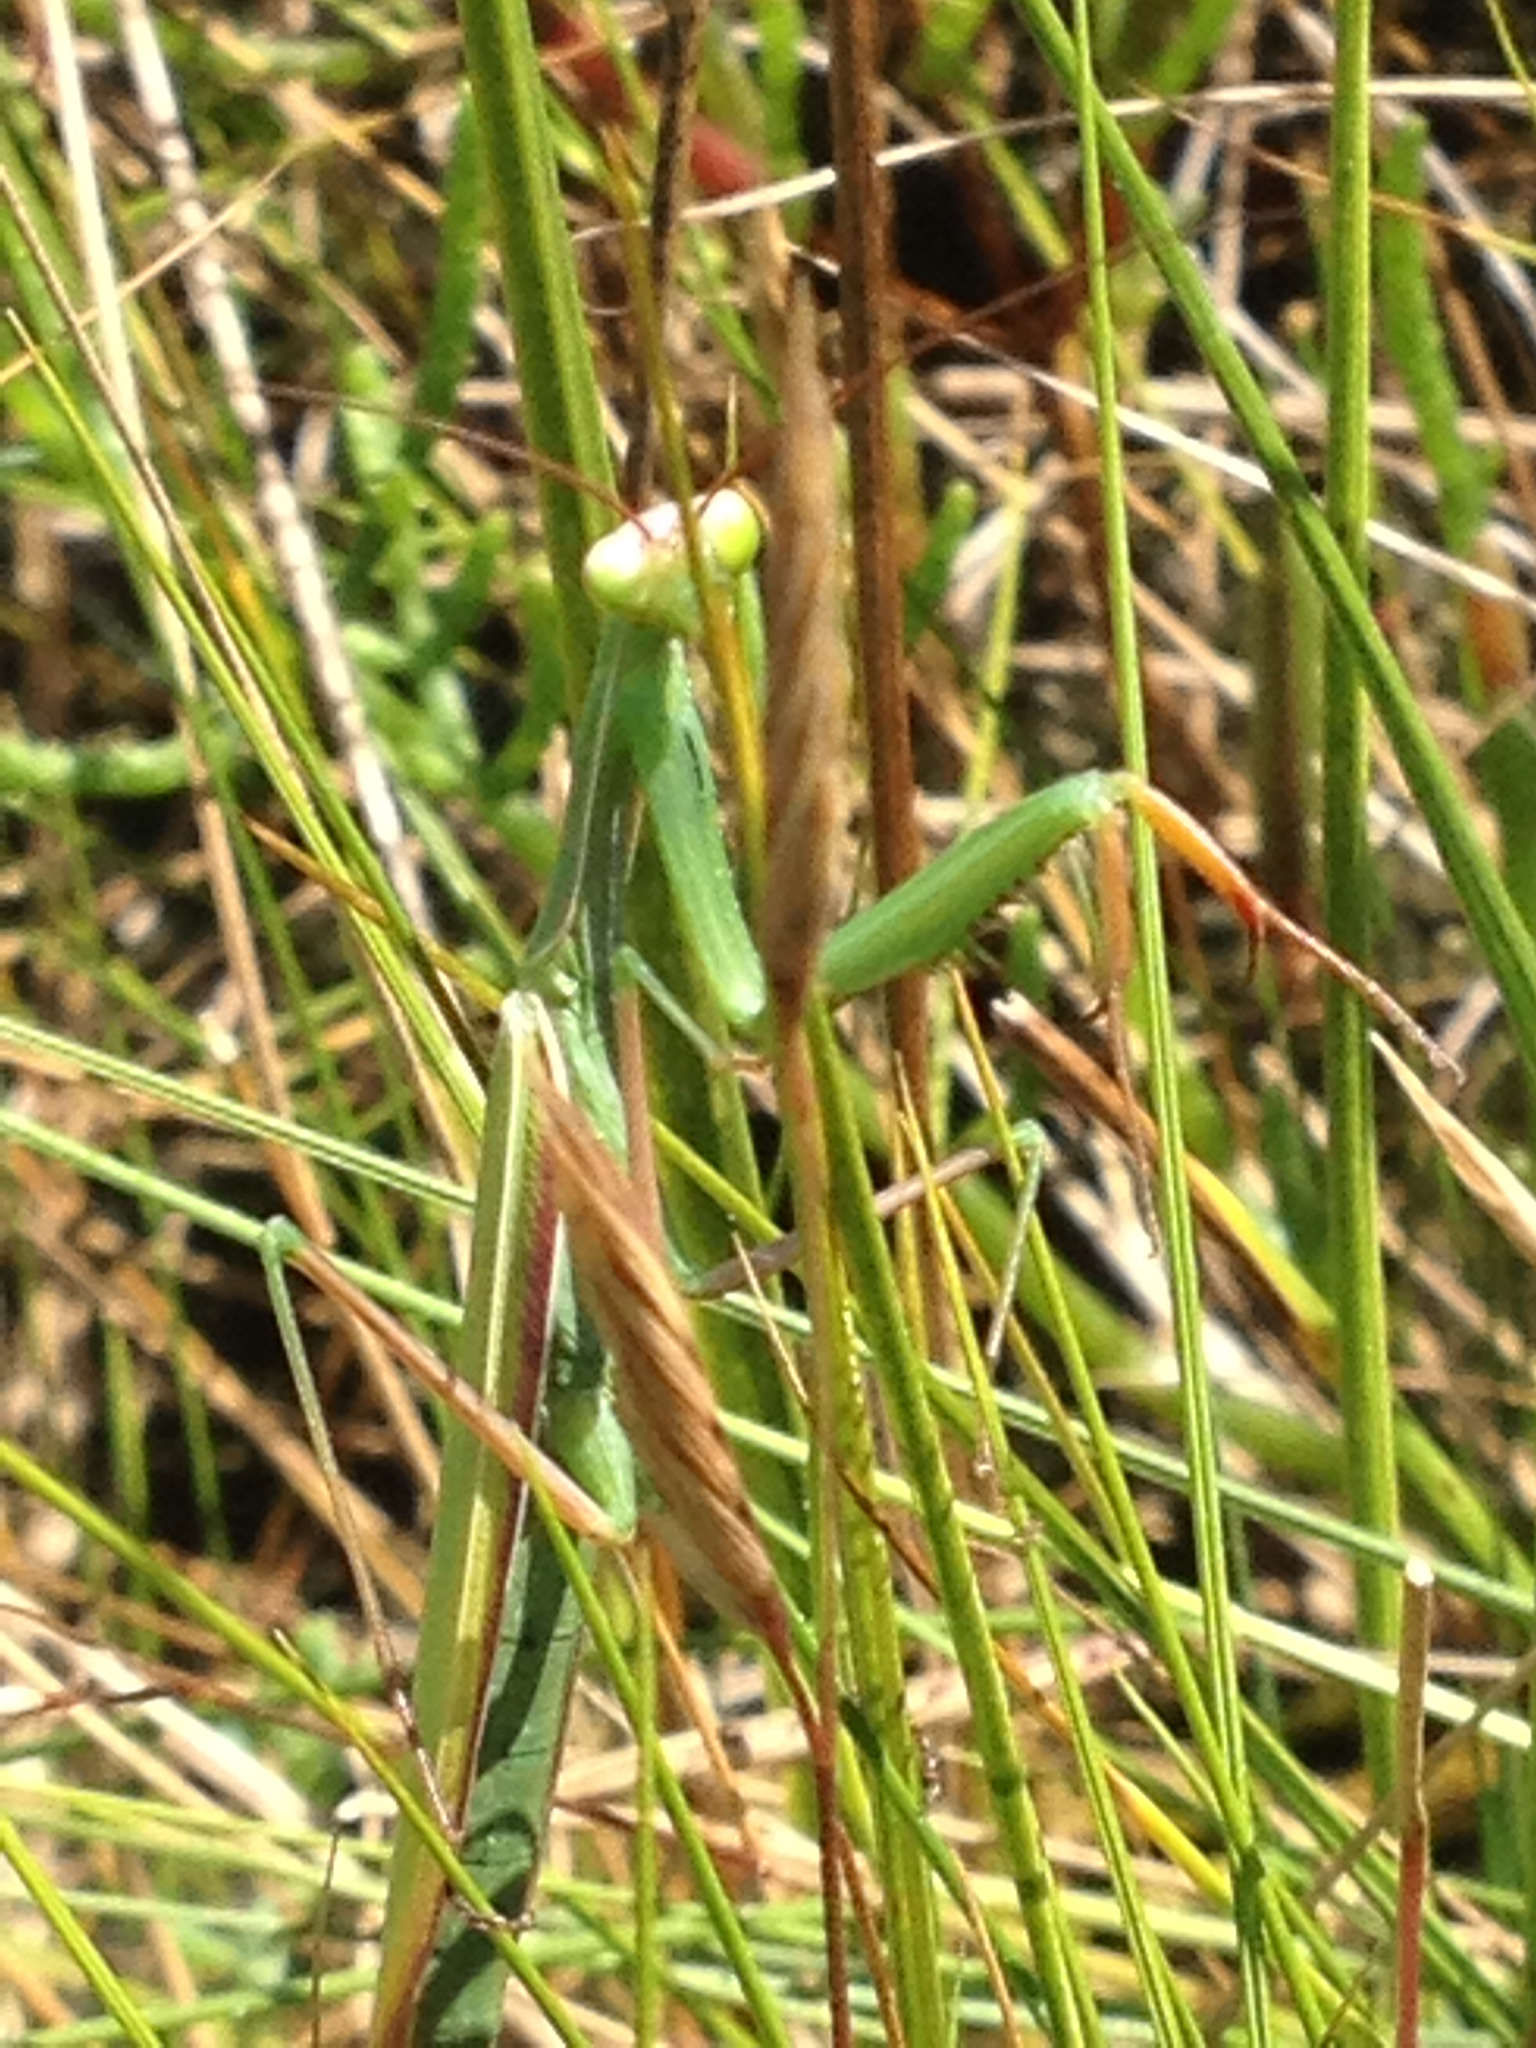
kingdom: Animalia
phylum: Arthropoda
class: Insecta
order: Mantodea
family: Mantidae
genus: Mantis
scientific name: Mantis religiosa
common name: Praying mantis
